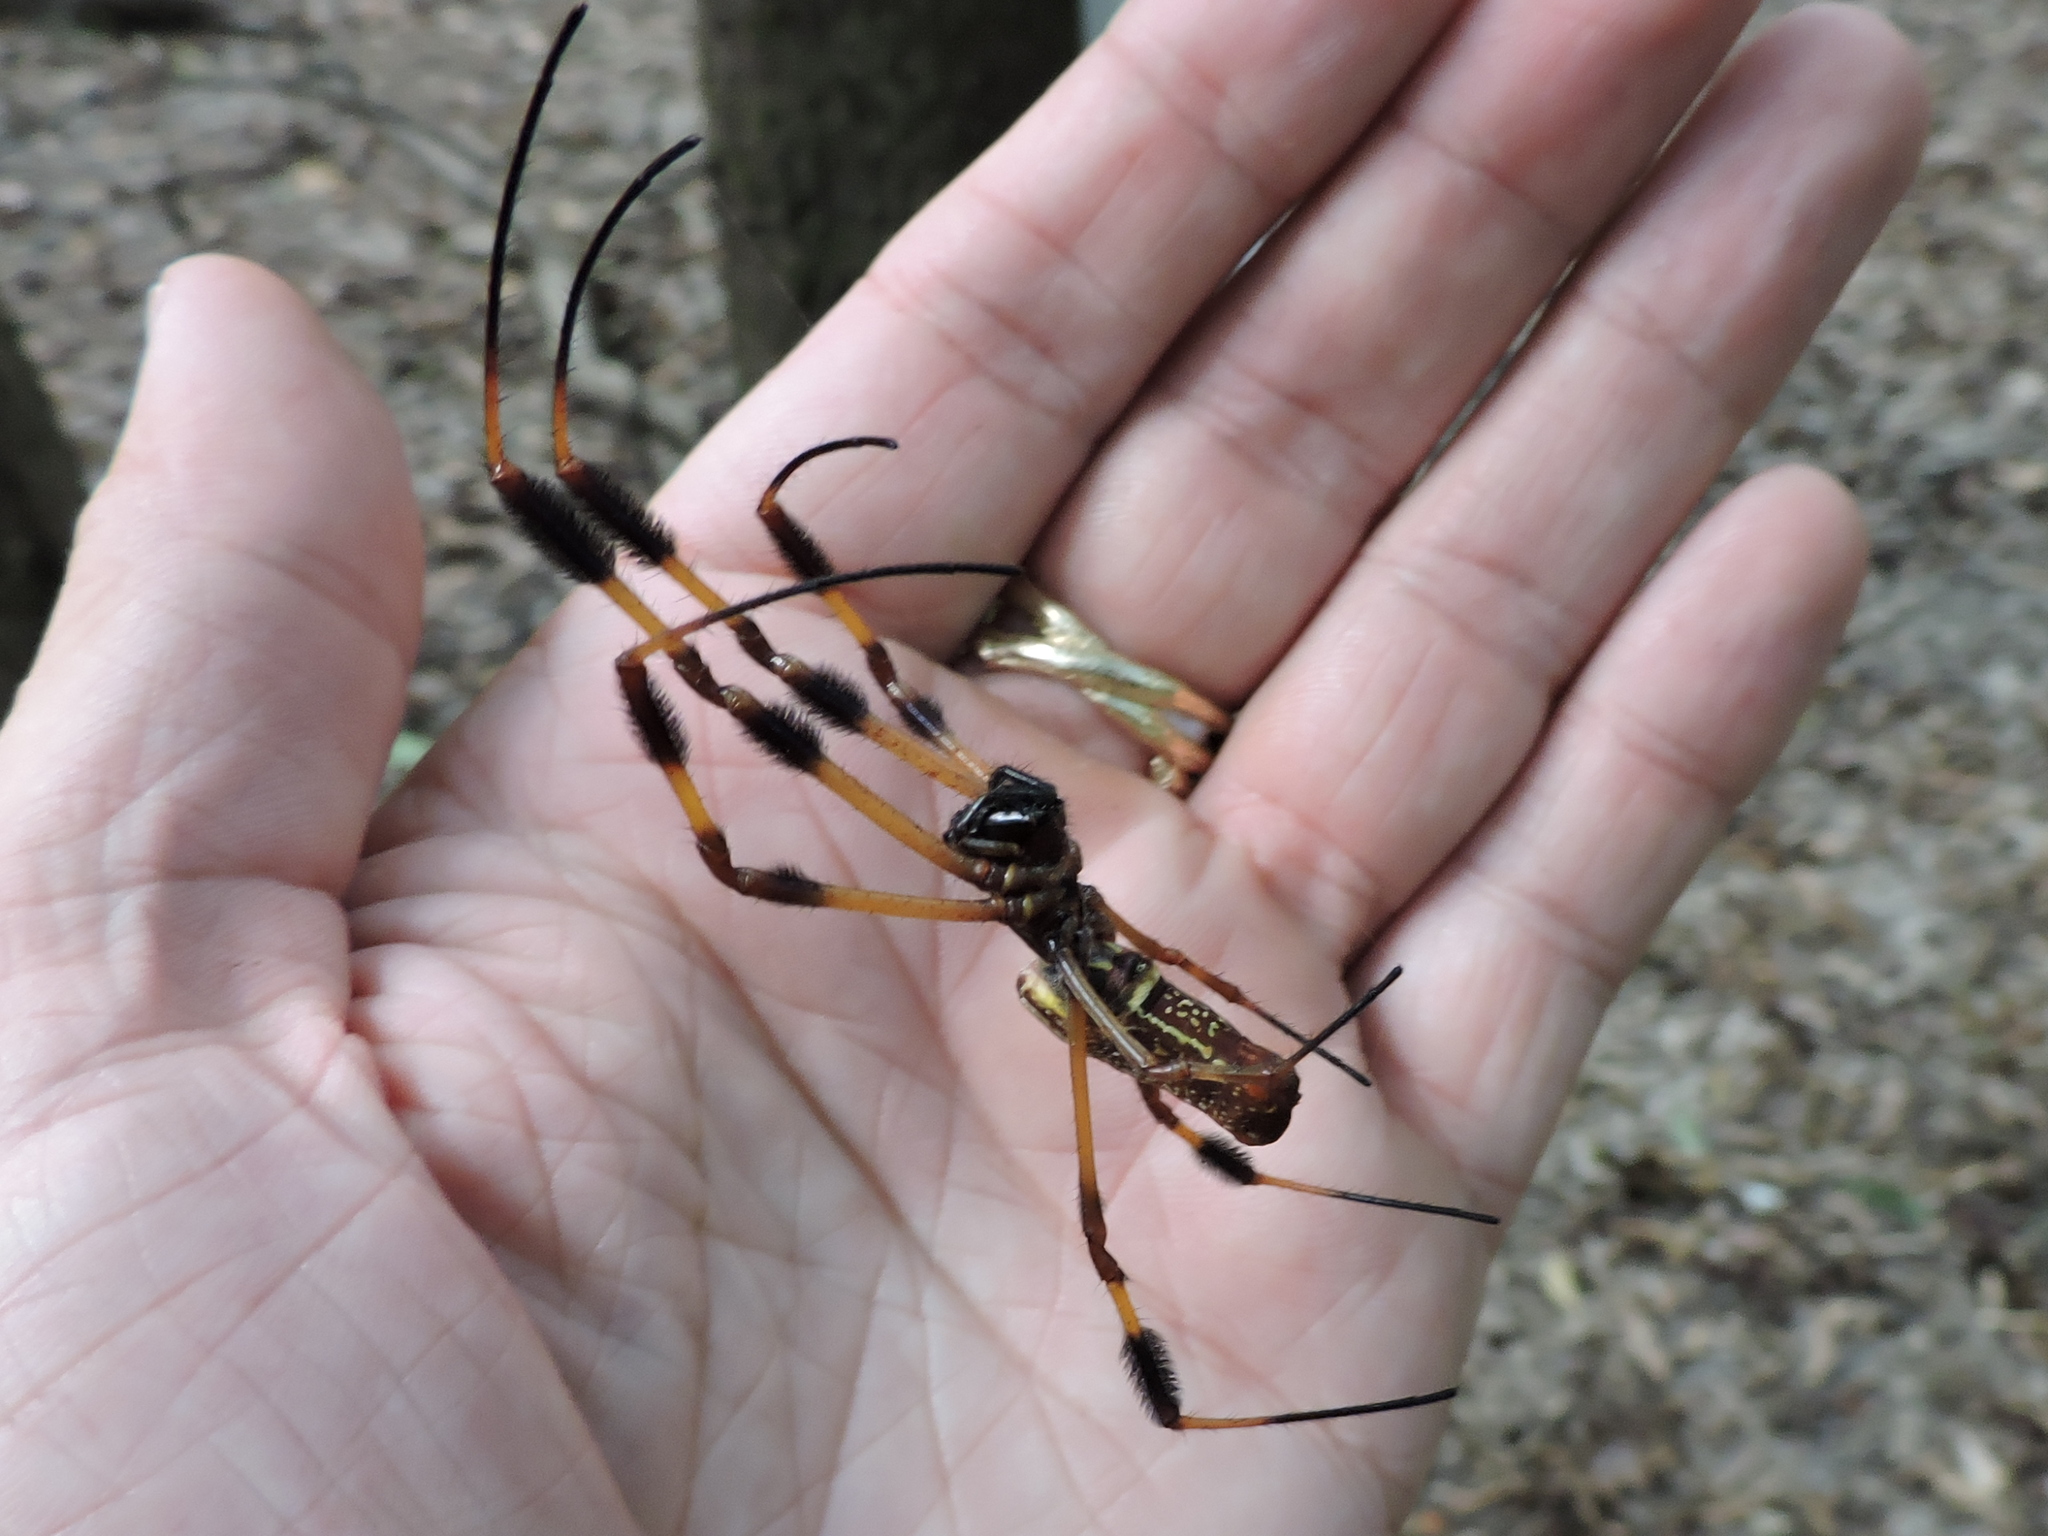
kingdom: Animalia
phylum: Arthropoda
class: Arachnida
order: Araneae
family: Araneidae
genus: Trichonephila
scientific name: Trichonephila clavipes
